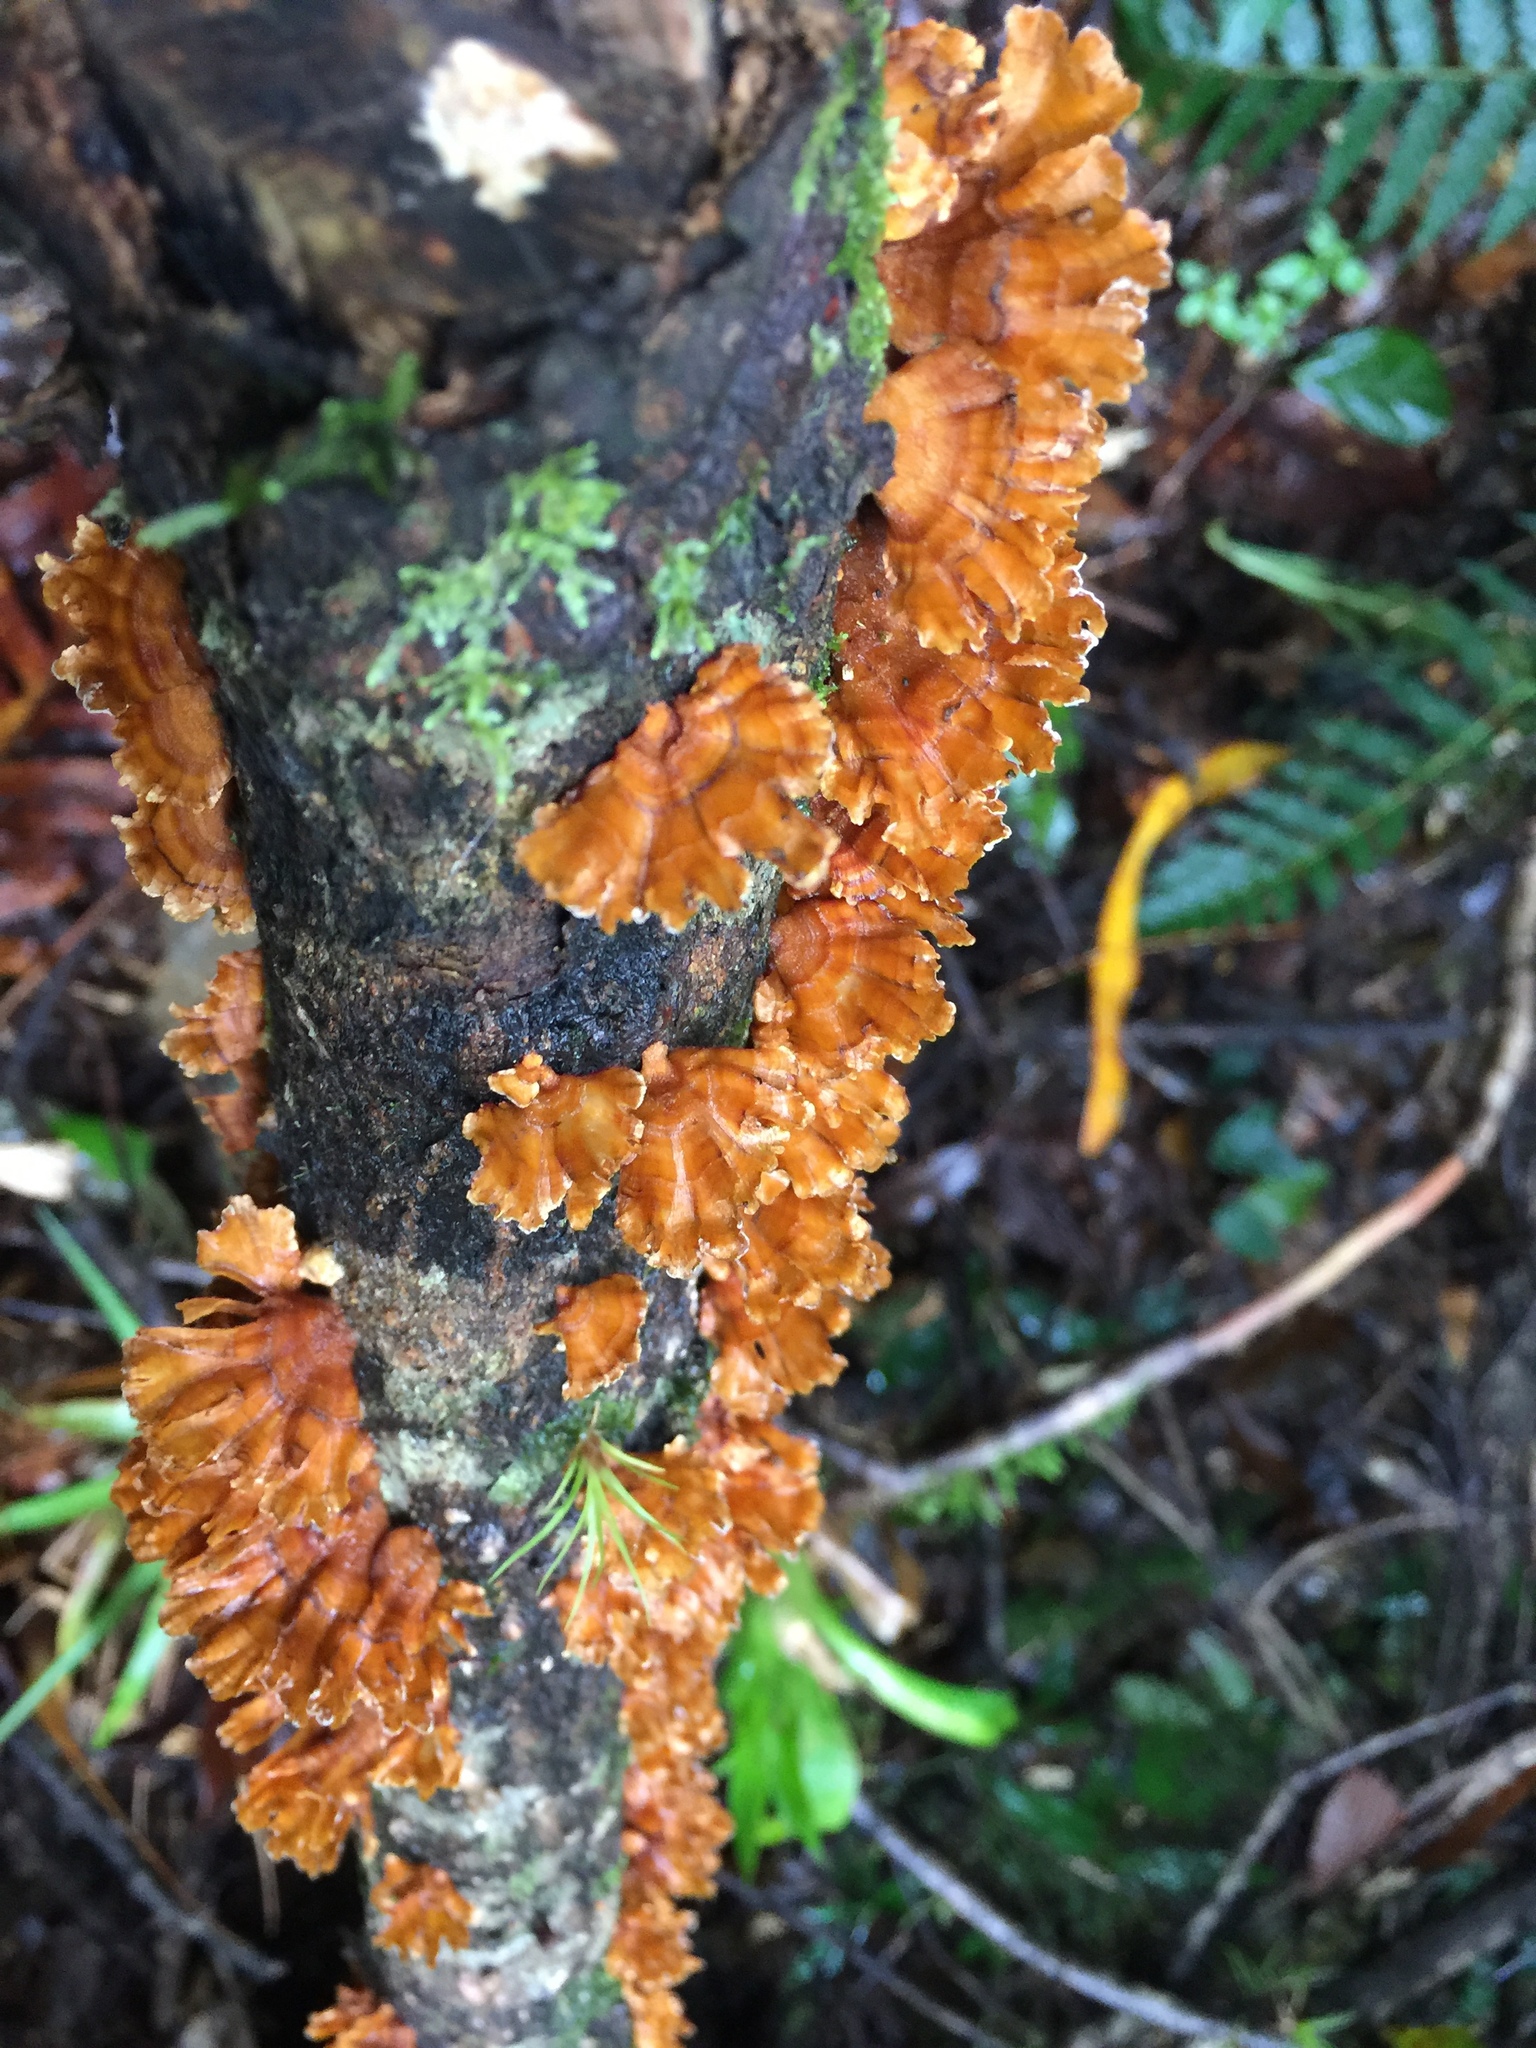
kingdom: Fungi
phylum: Basidiomycota
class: Agaricomycetes
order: Russulales
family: Stereaceae
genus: Stereum
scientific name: Stereum complicatum
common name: Crowded parchment
